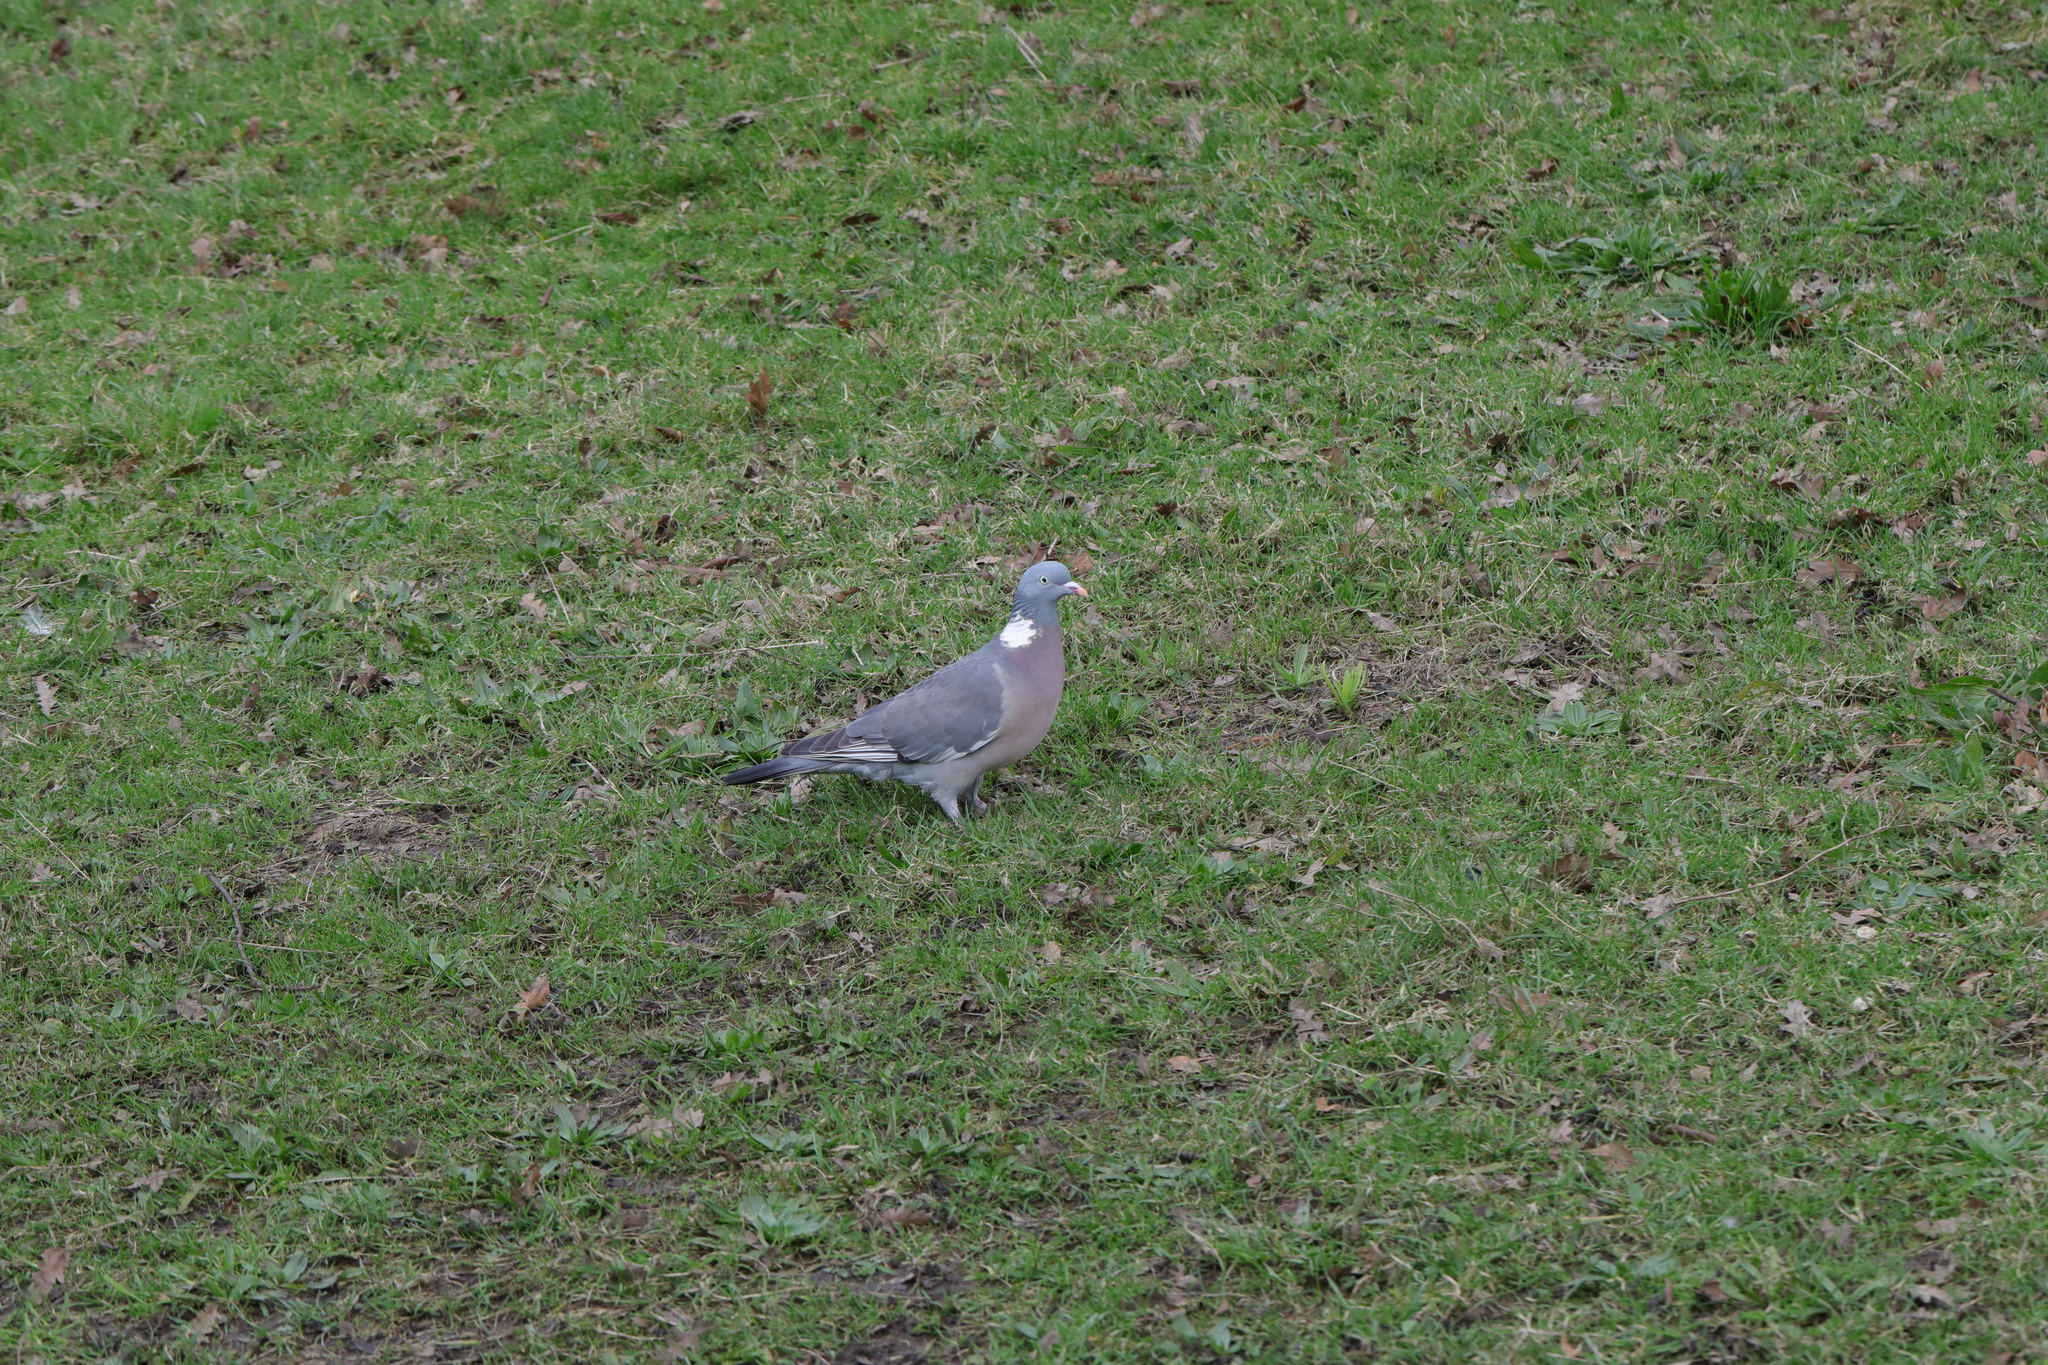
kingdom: Animalia
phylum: Chordata
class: Aves
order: Columbiformes
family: Columbidae
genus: Columba
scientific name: Columba palumbus
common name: Common wood pigeon
